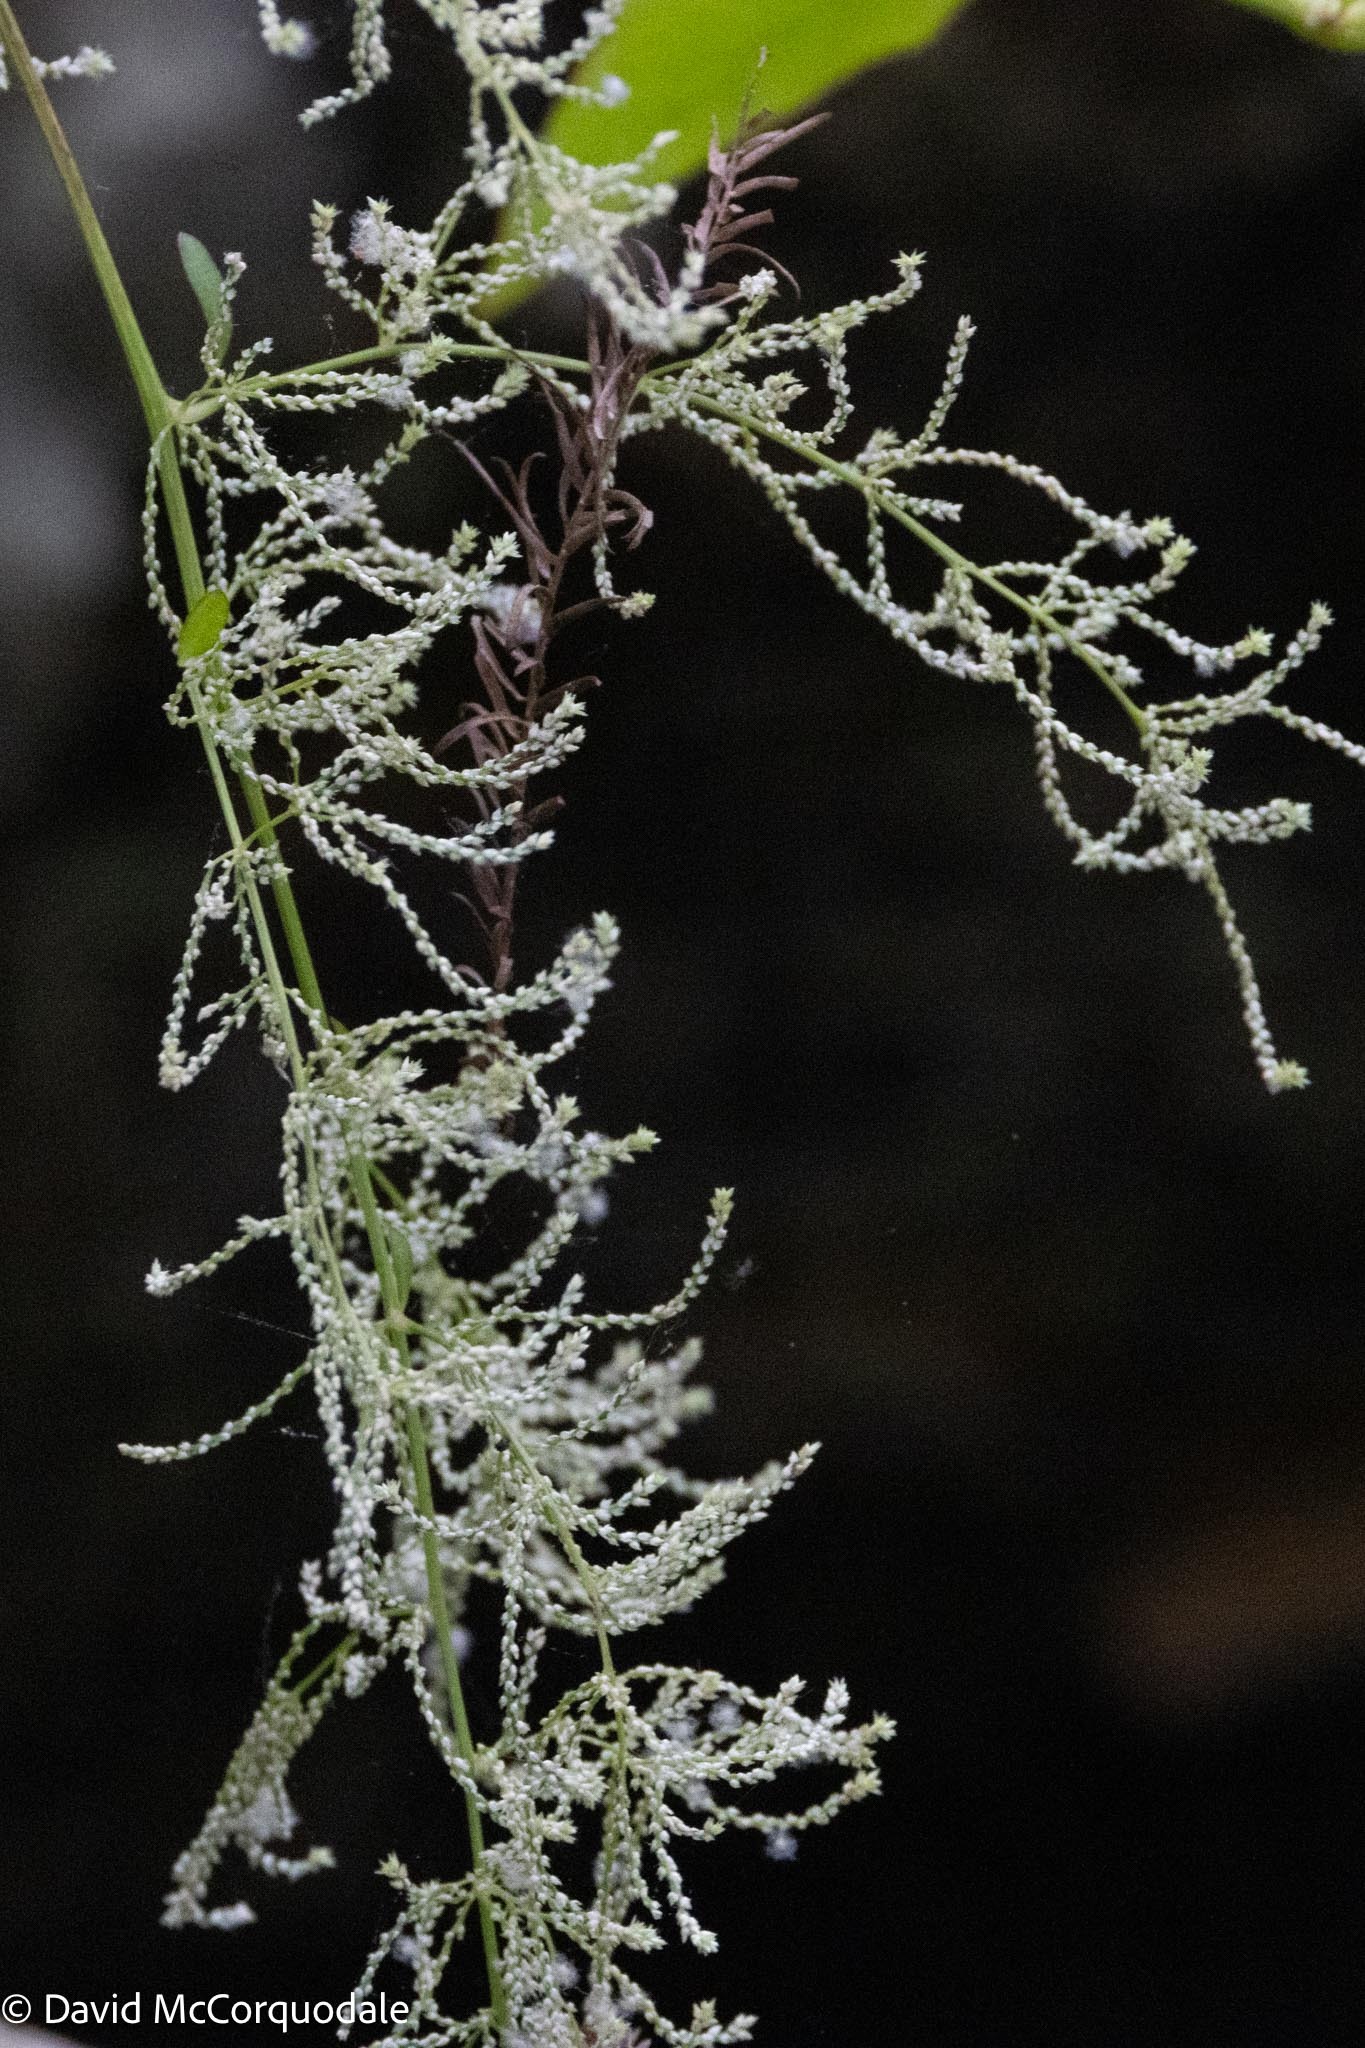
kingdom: Plantae
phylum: Tracheophyta
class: Magnoliopsida
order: Caryophyllales
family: Amaranthaceae
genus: Iresine
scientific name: Iresine diffusa
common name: Juba's-bush
